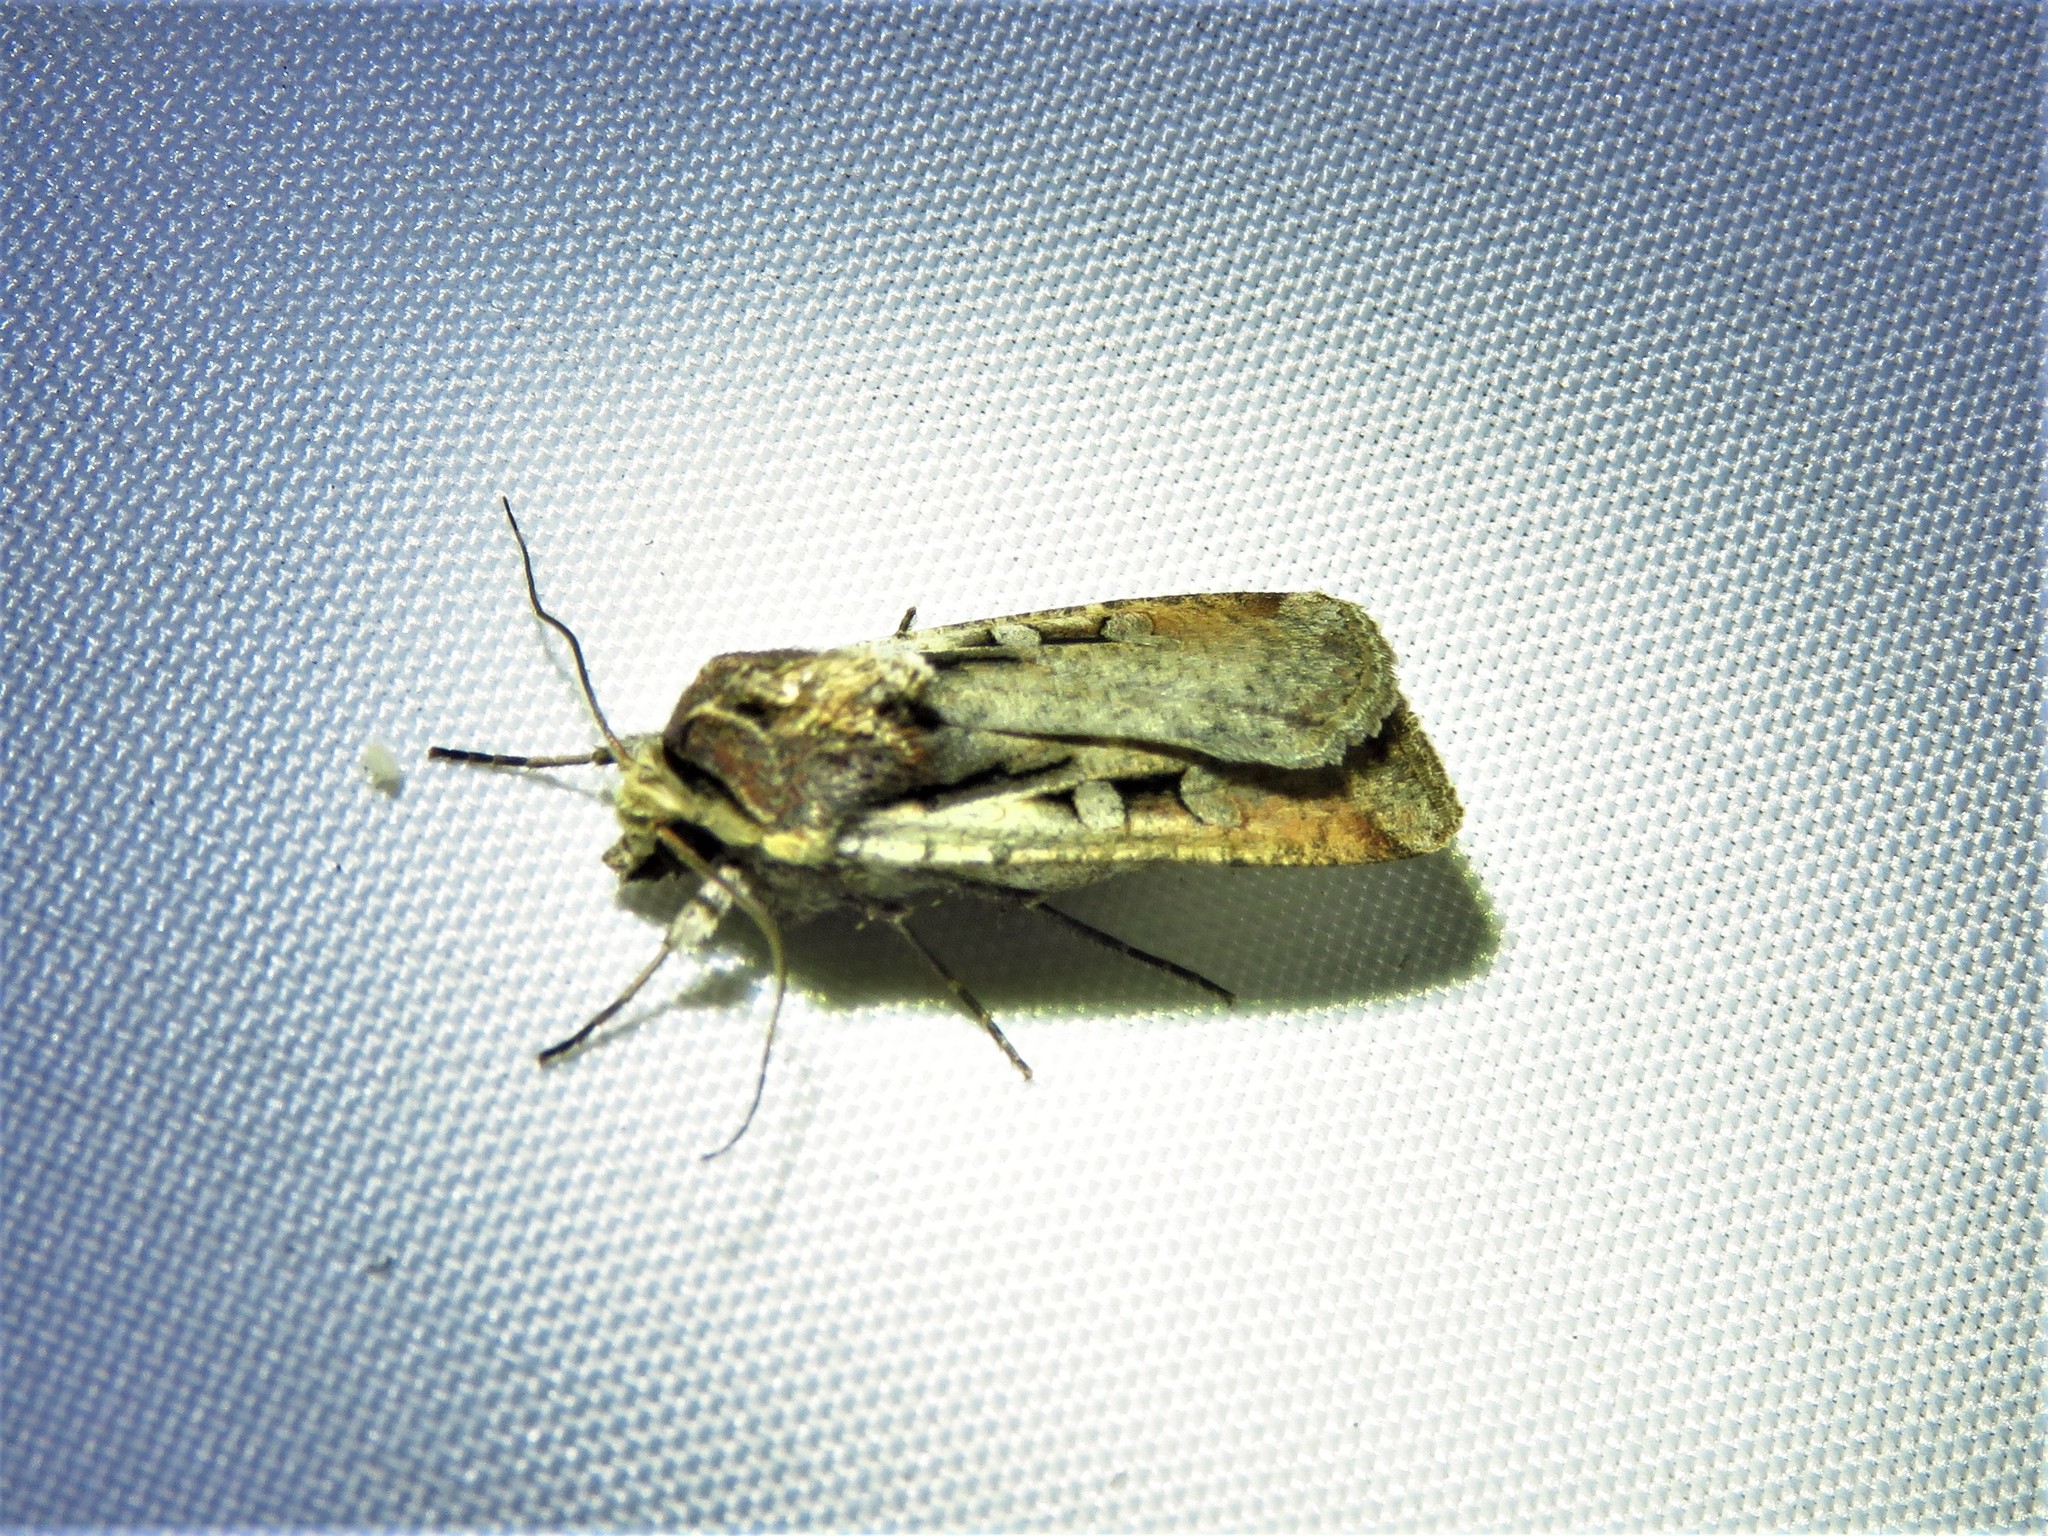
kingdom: Animalia
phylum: Arthropoda
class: Insecta
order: Lepidoptera
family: Noctuidae
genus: Hemieuxoa
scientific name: Hemieuxoa rudens
